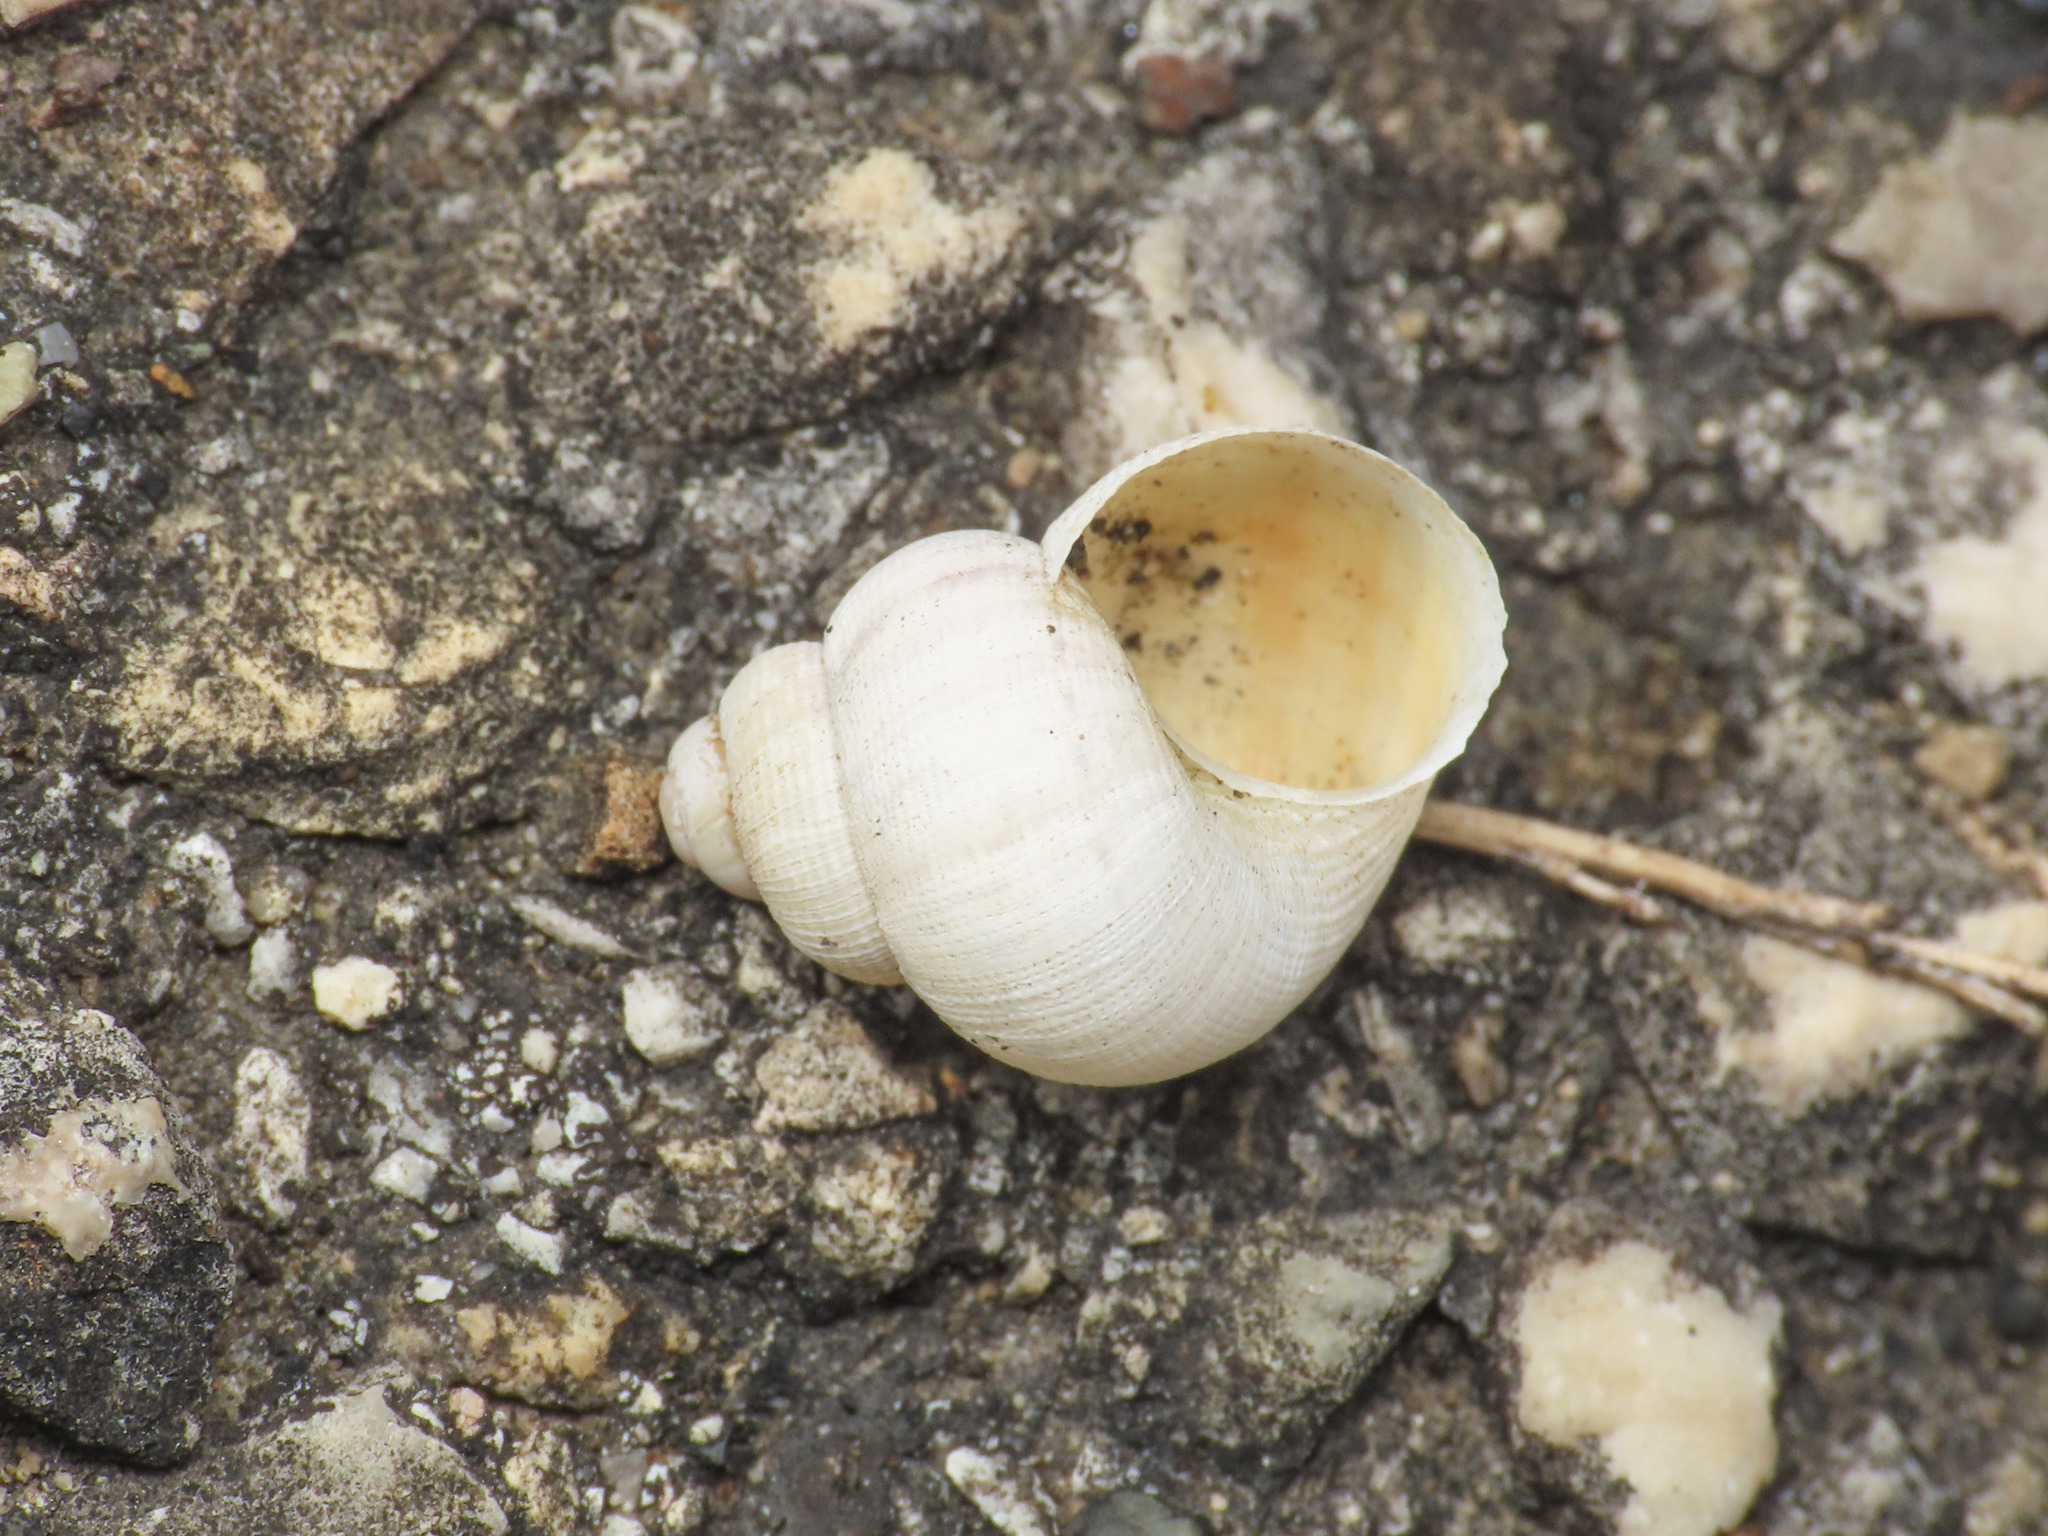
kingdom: Animalia
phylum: Mollusca
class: Gastropoda
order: Littorinimorpha
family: Pomatiidae
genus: Pomatias
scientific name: Pomatias elegans
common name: Red-mouthed snail
